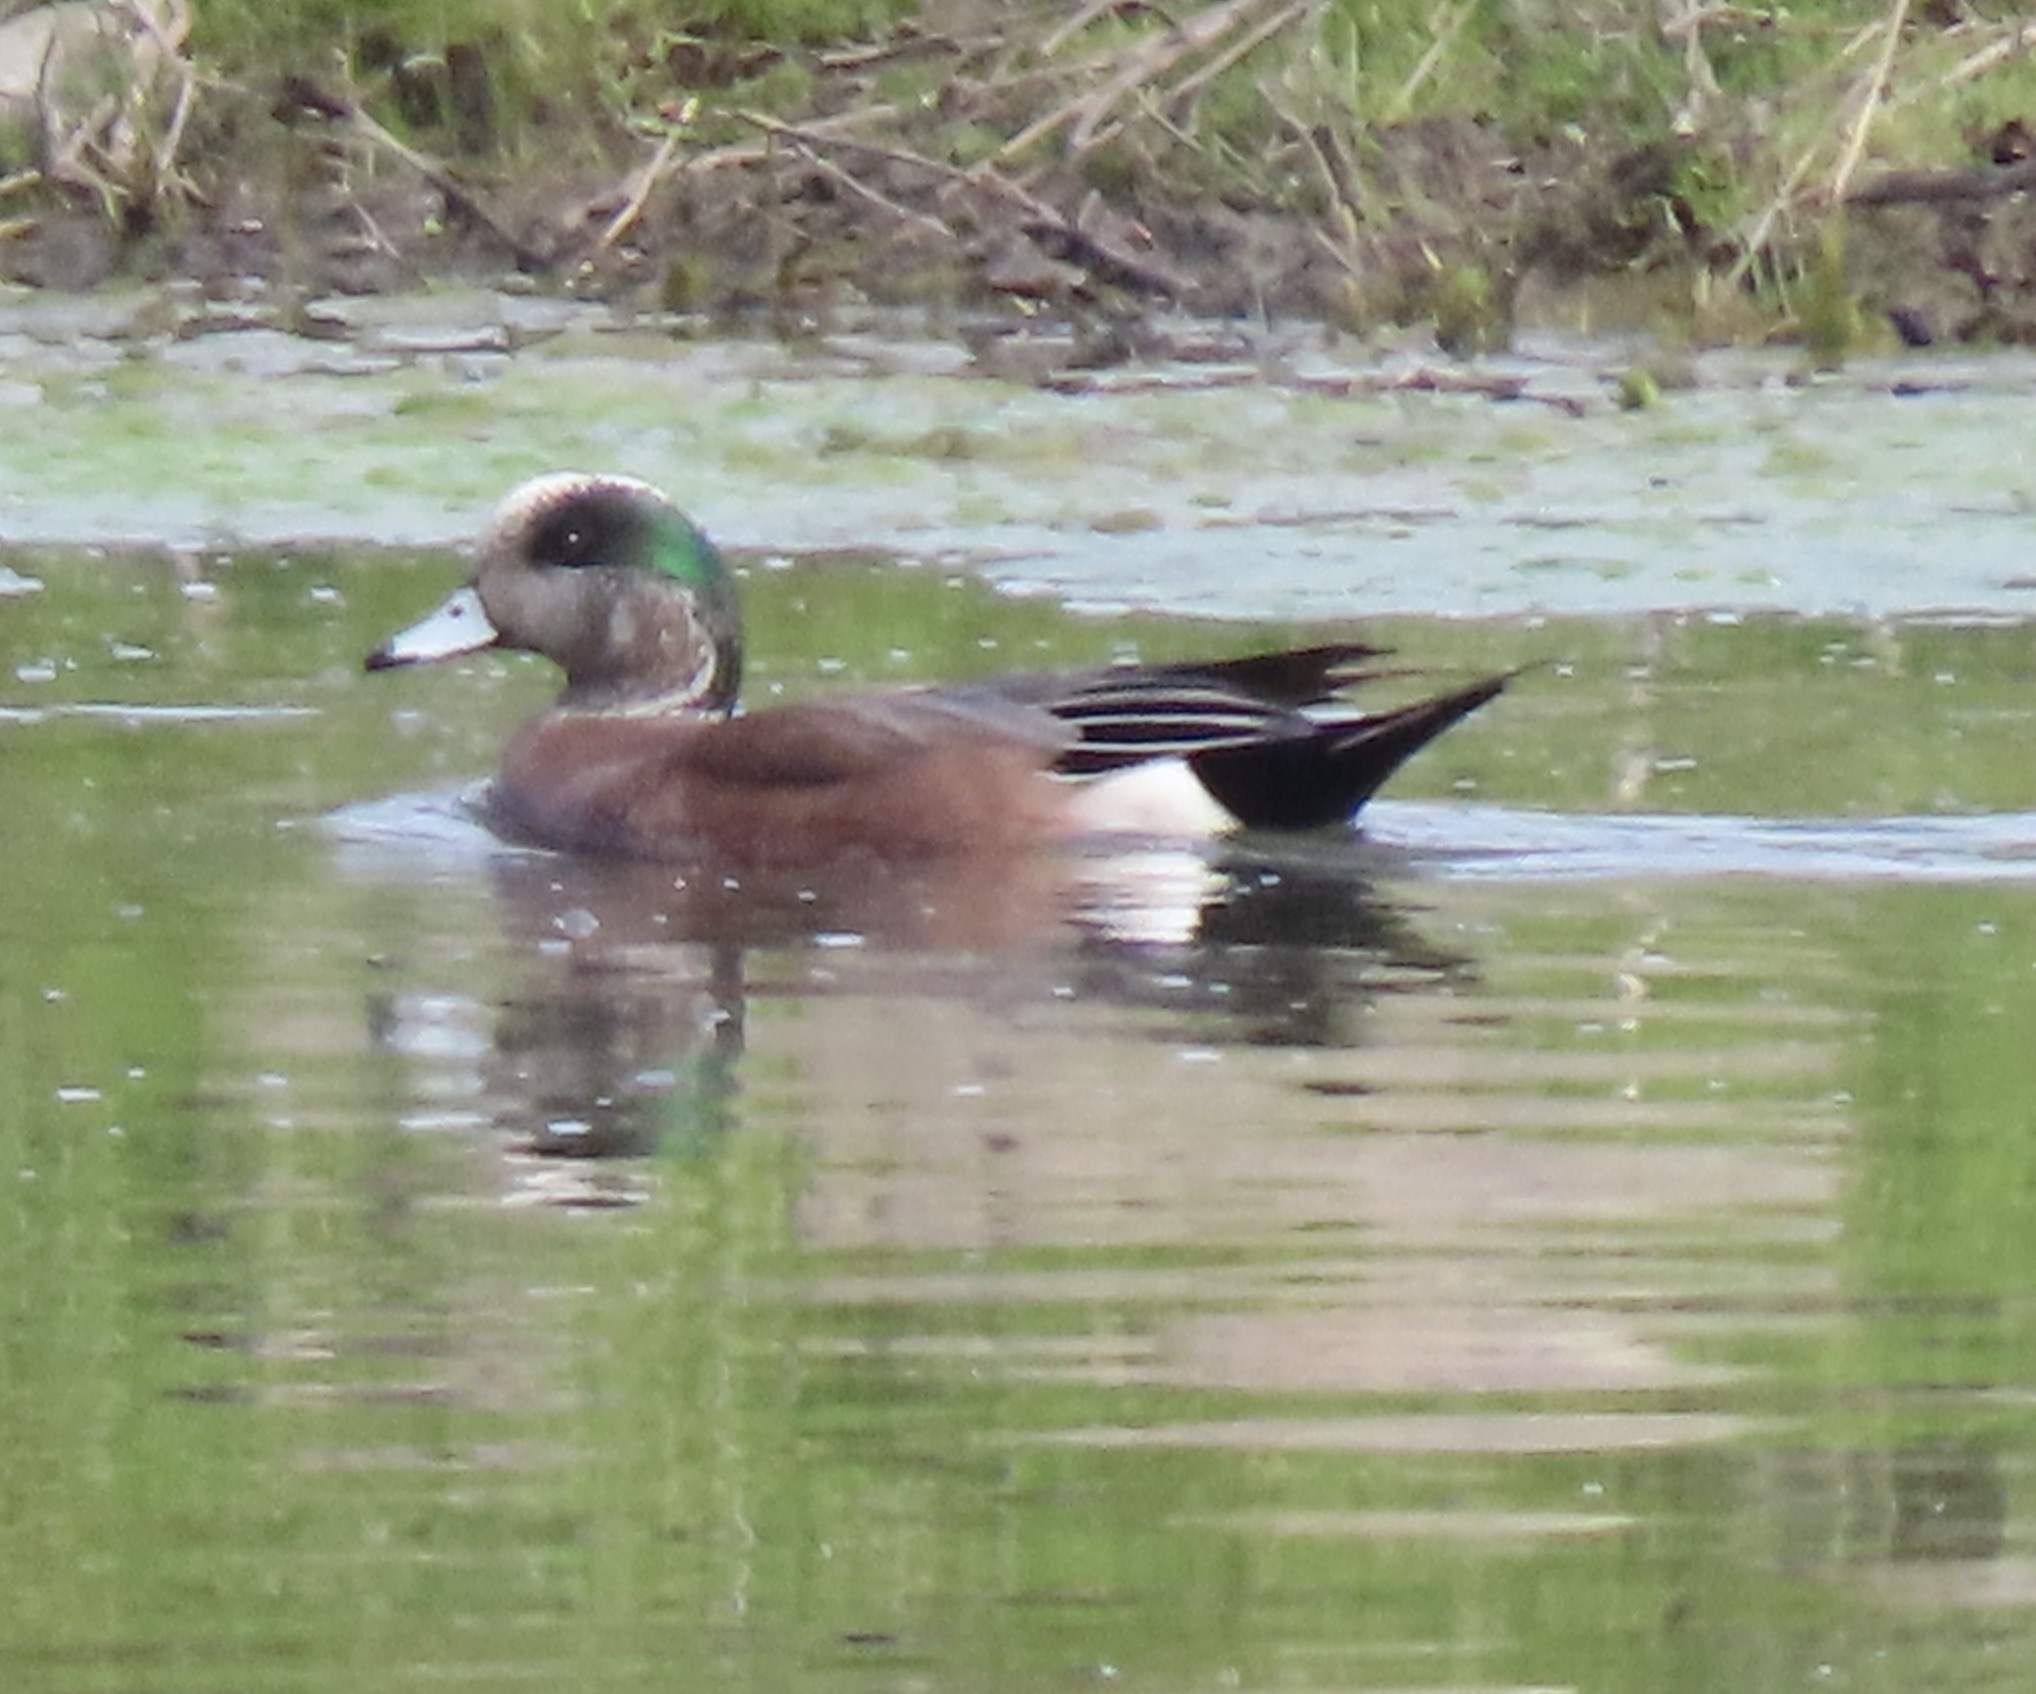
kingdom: Animalia
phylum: Chordata
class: Aves
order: Anseriformes
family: Anatidae
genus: Mareca
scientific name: Mareca americana
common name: American wigeon
